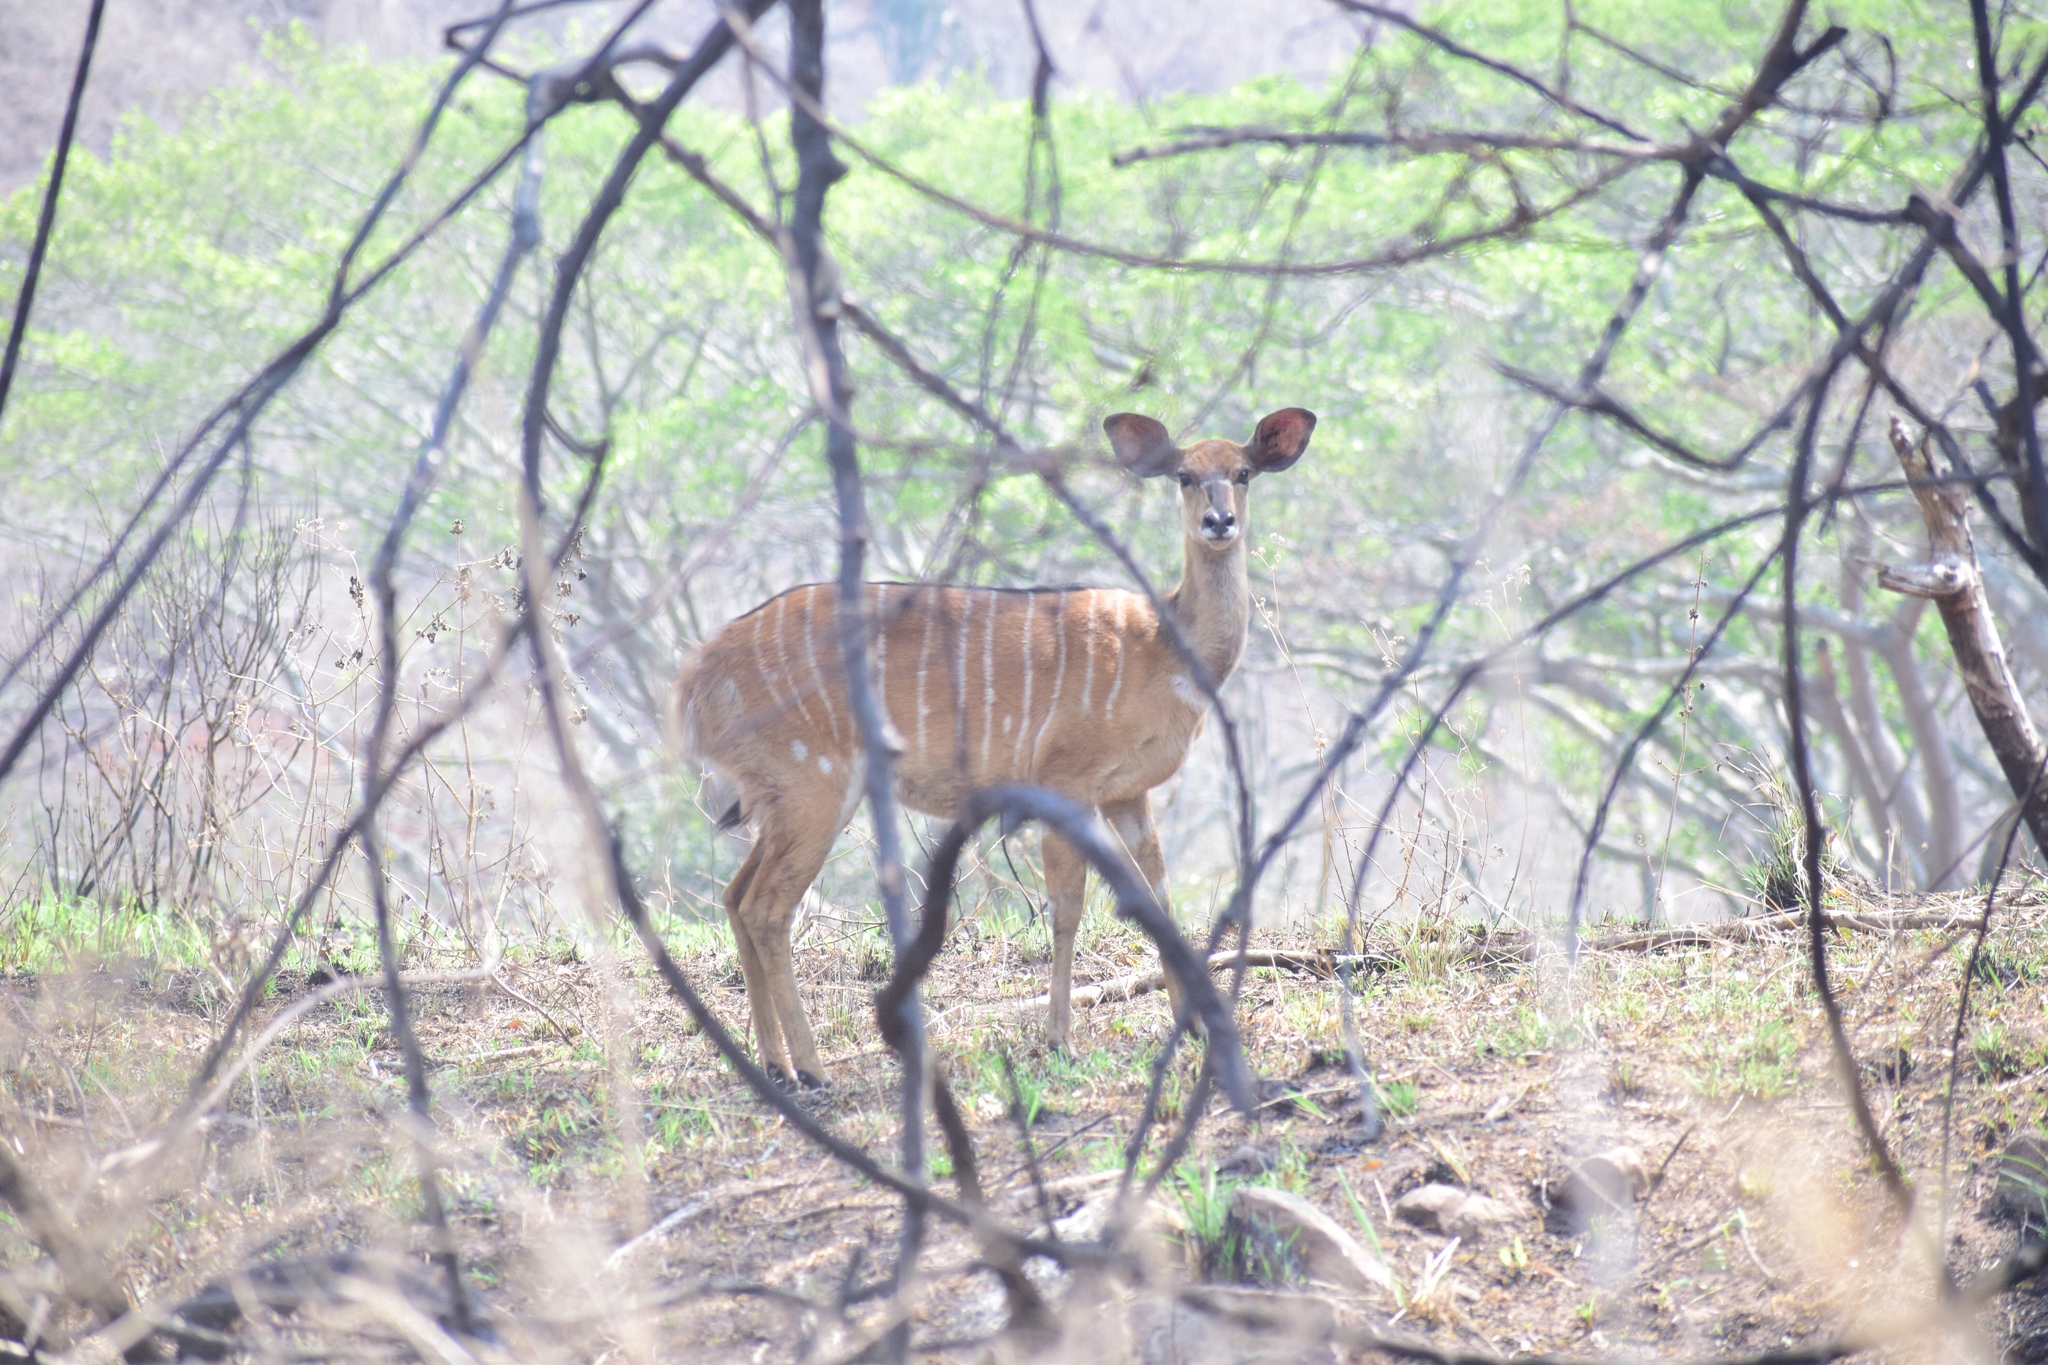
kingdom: Animalia
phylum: Chordata
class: Mammalia
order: Artiodactyla
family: Bovidae
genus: Tragelaphus
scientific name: Tragelaphus angasii
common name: Nyala
